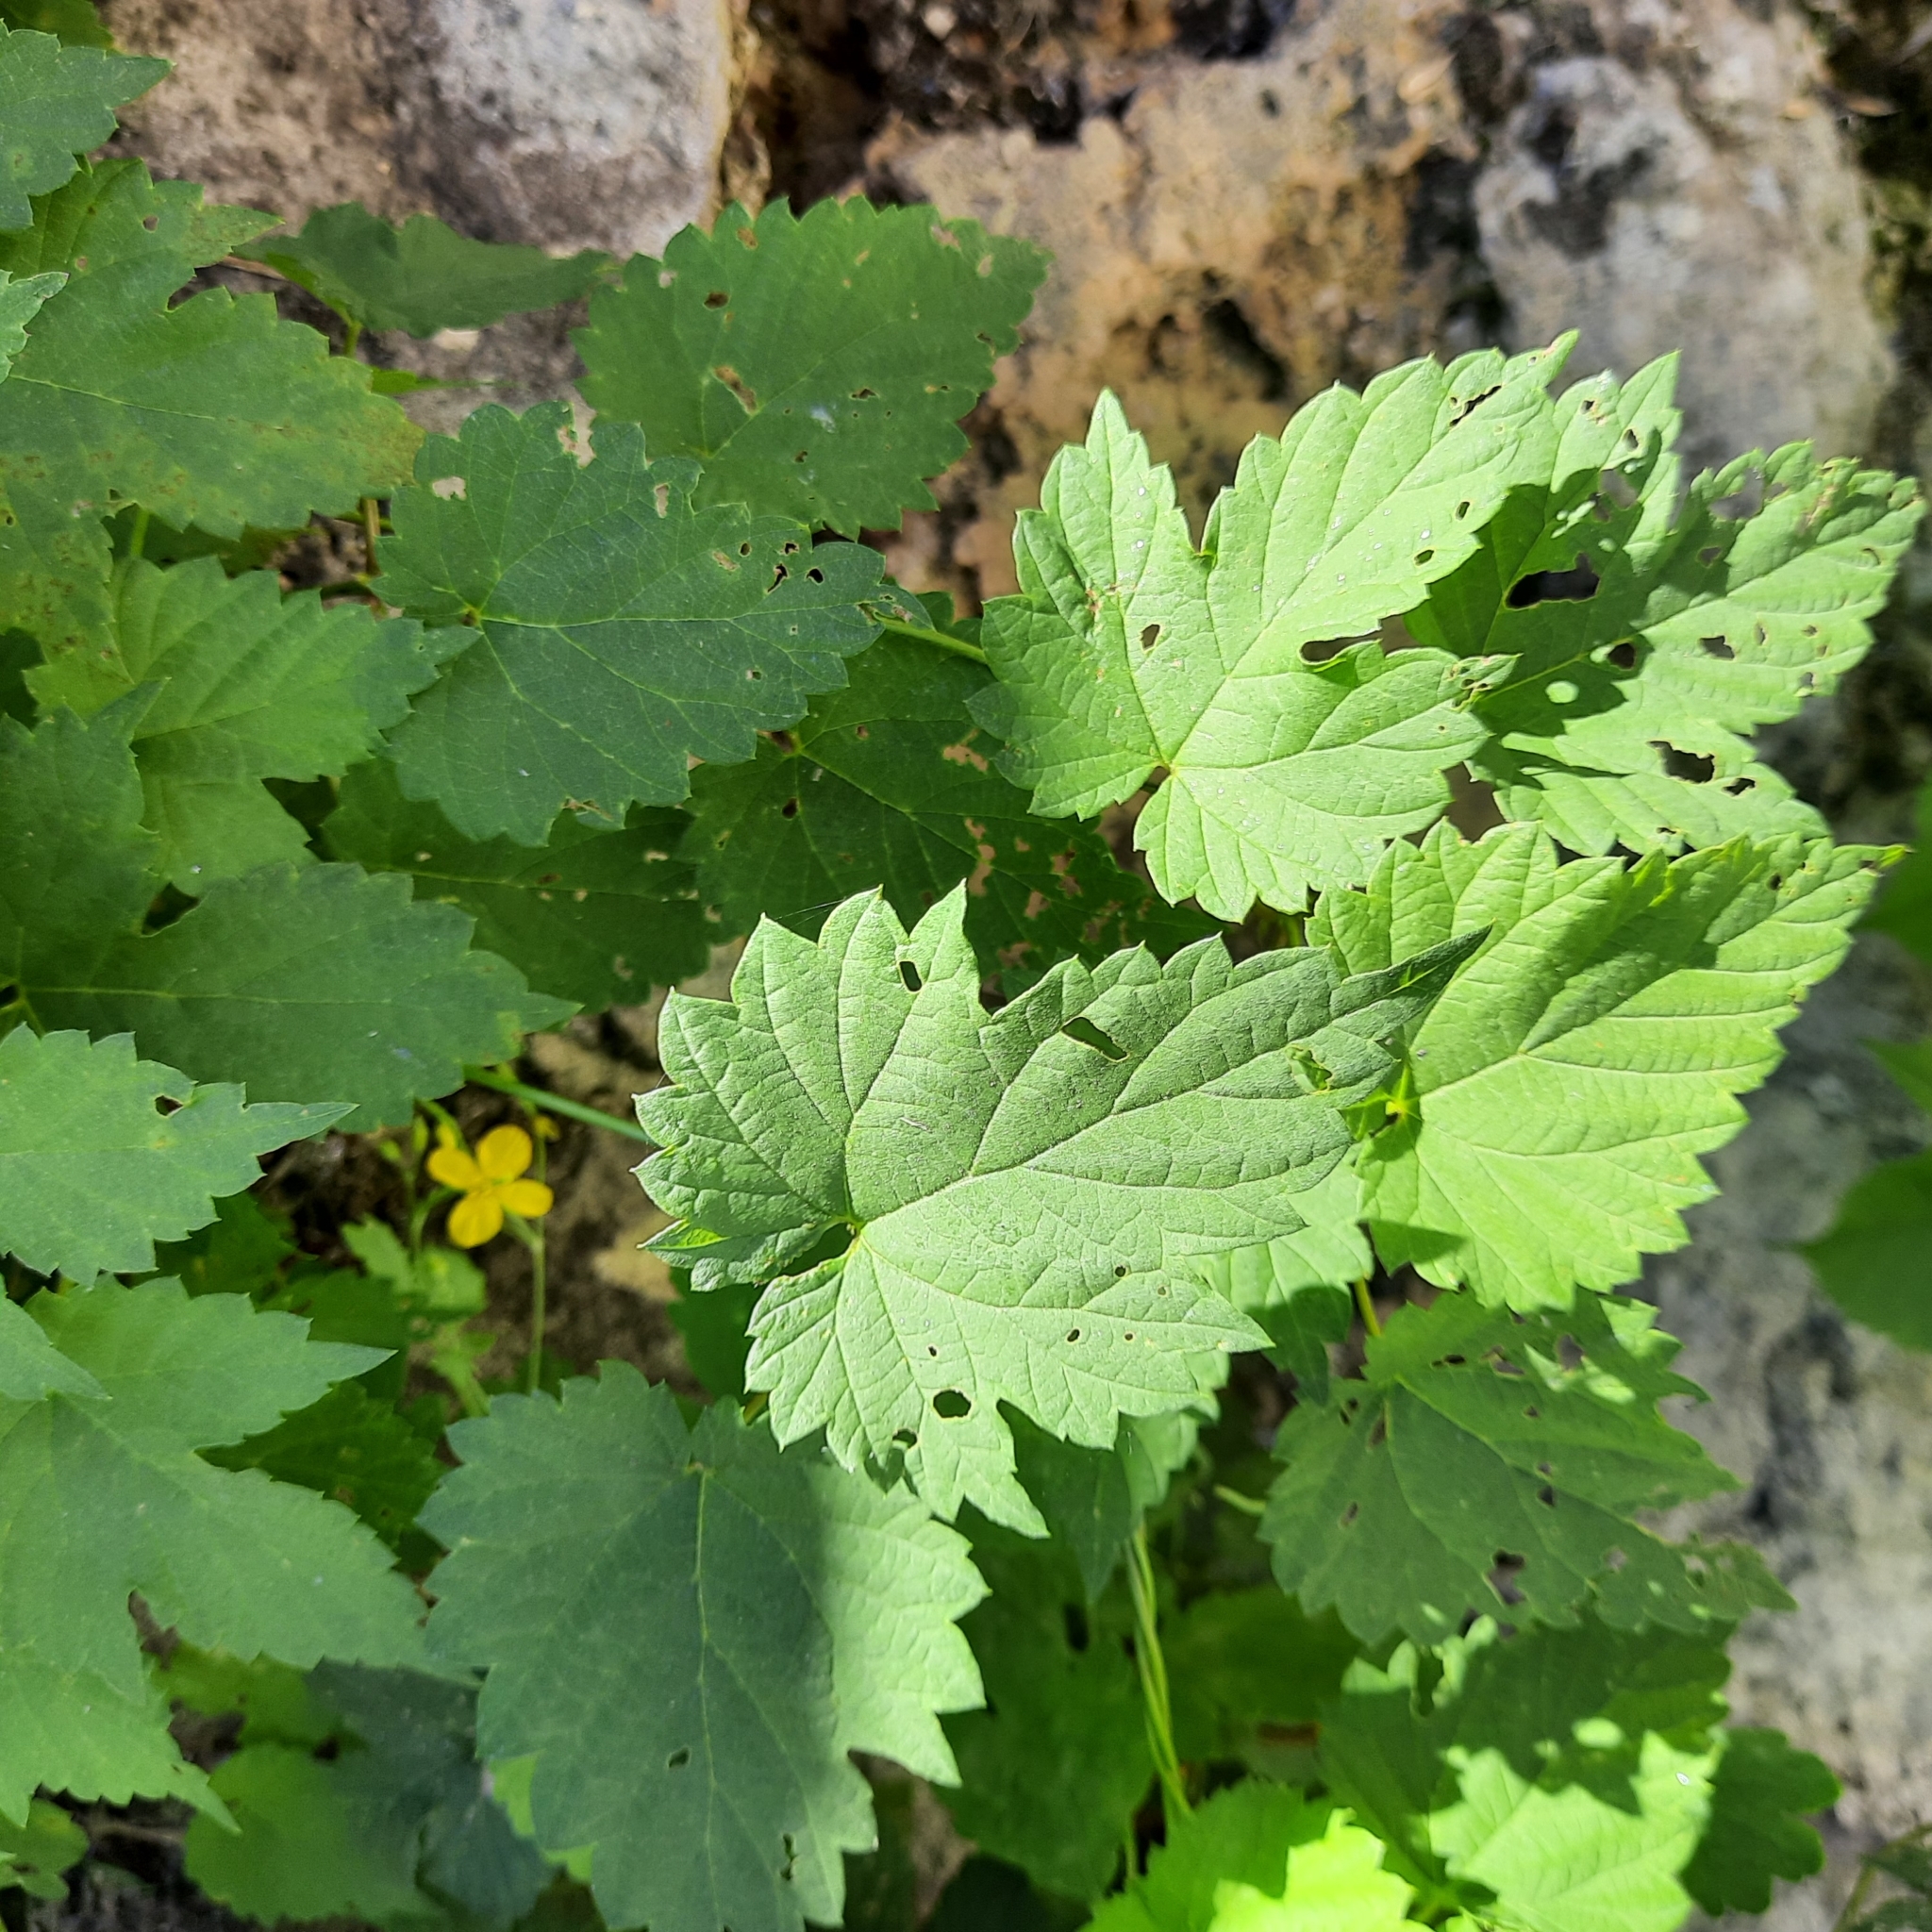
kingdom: Plantae
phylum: Tracheophyta
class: Magnoliopsida
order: Rosales
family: Cannabaceae
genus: Humulus
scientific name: Humulus lupulus
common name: Hop
